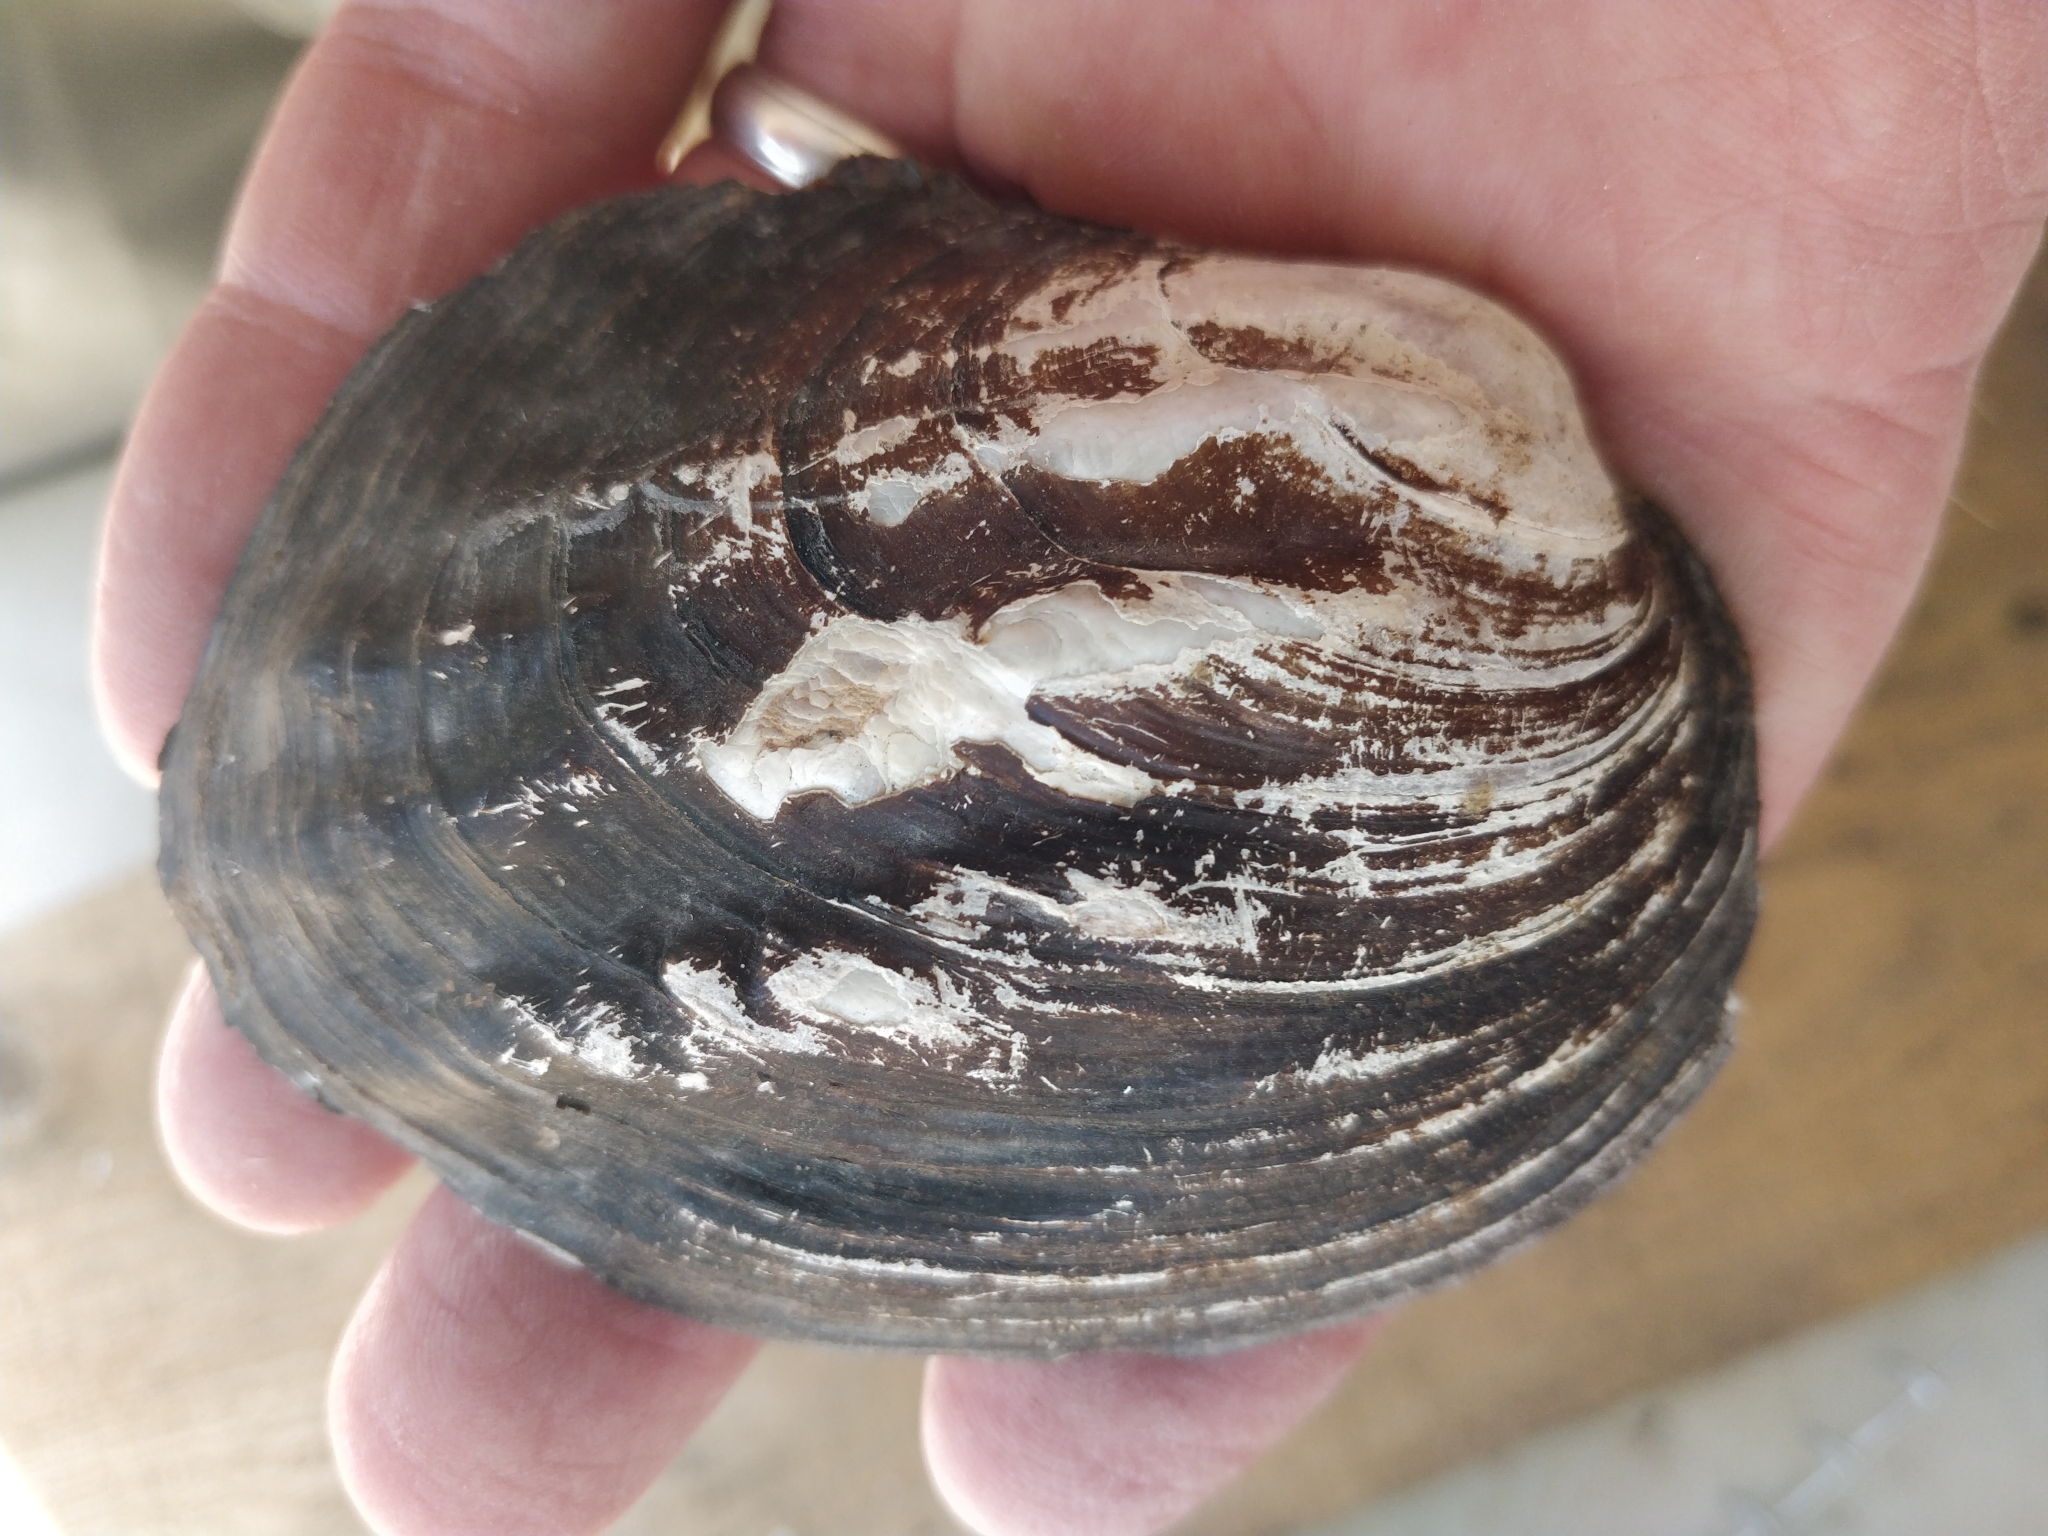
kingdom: Animalia
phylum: Mollusca
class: Bivalvia
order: Unionida
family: Unionidae
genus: Amblema
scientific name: Amblema plicata
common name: Threeridge
